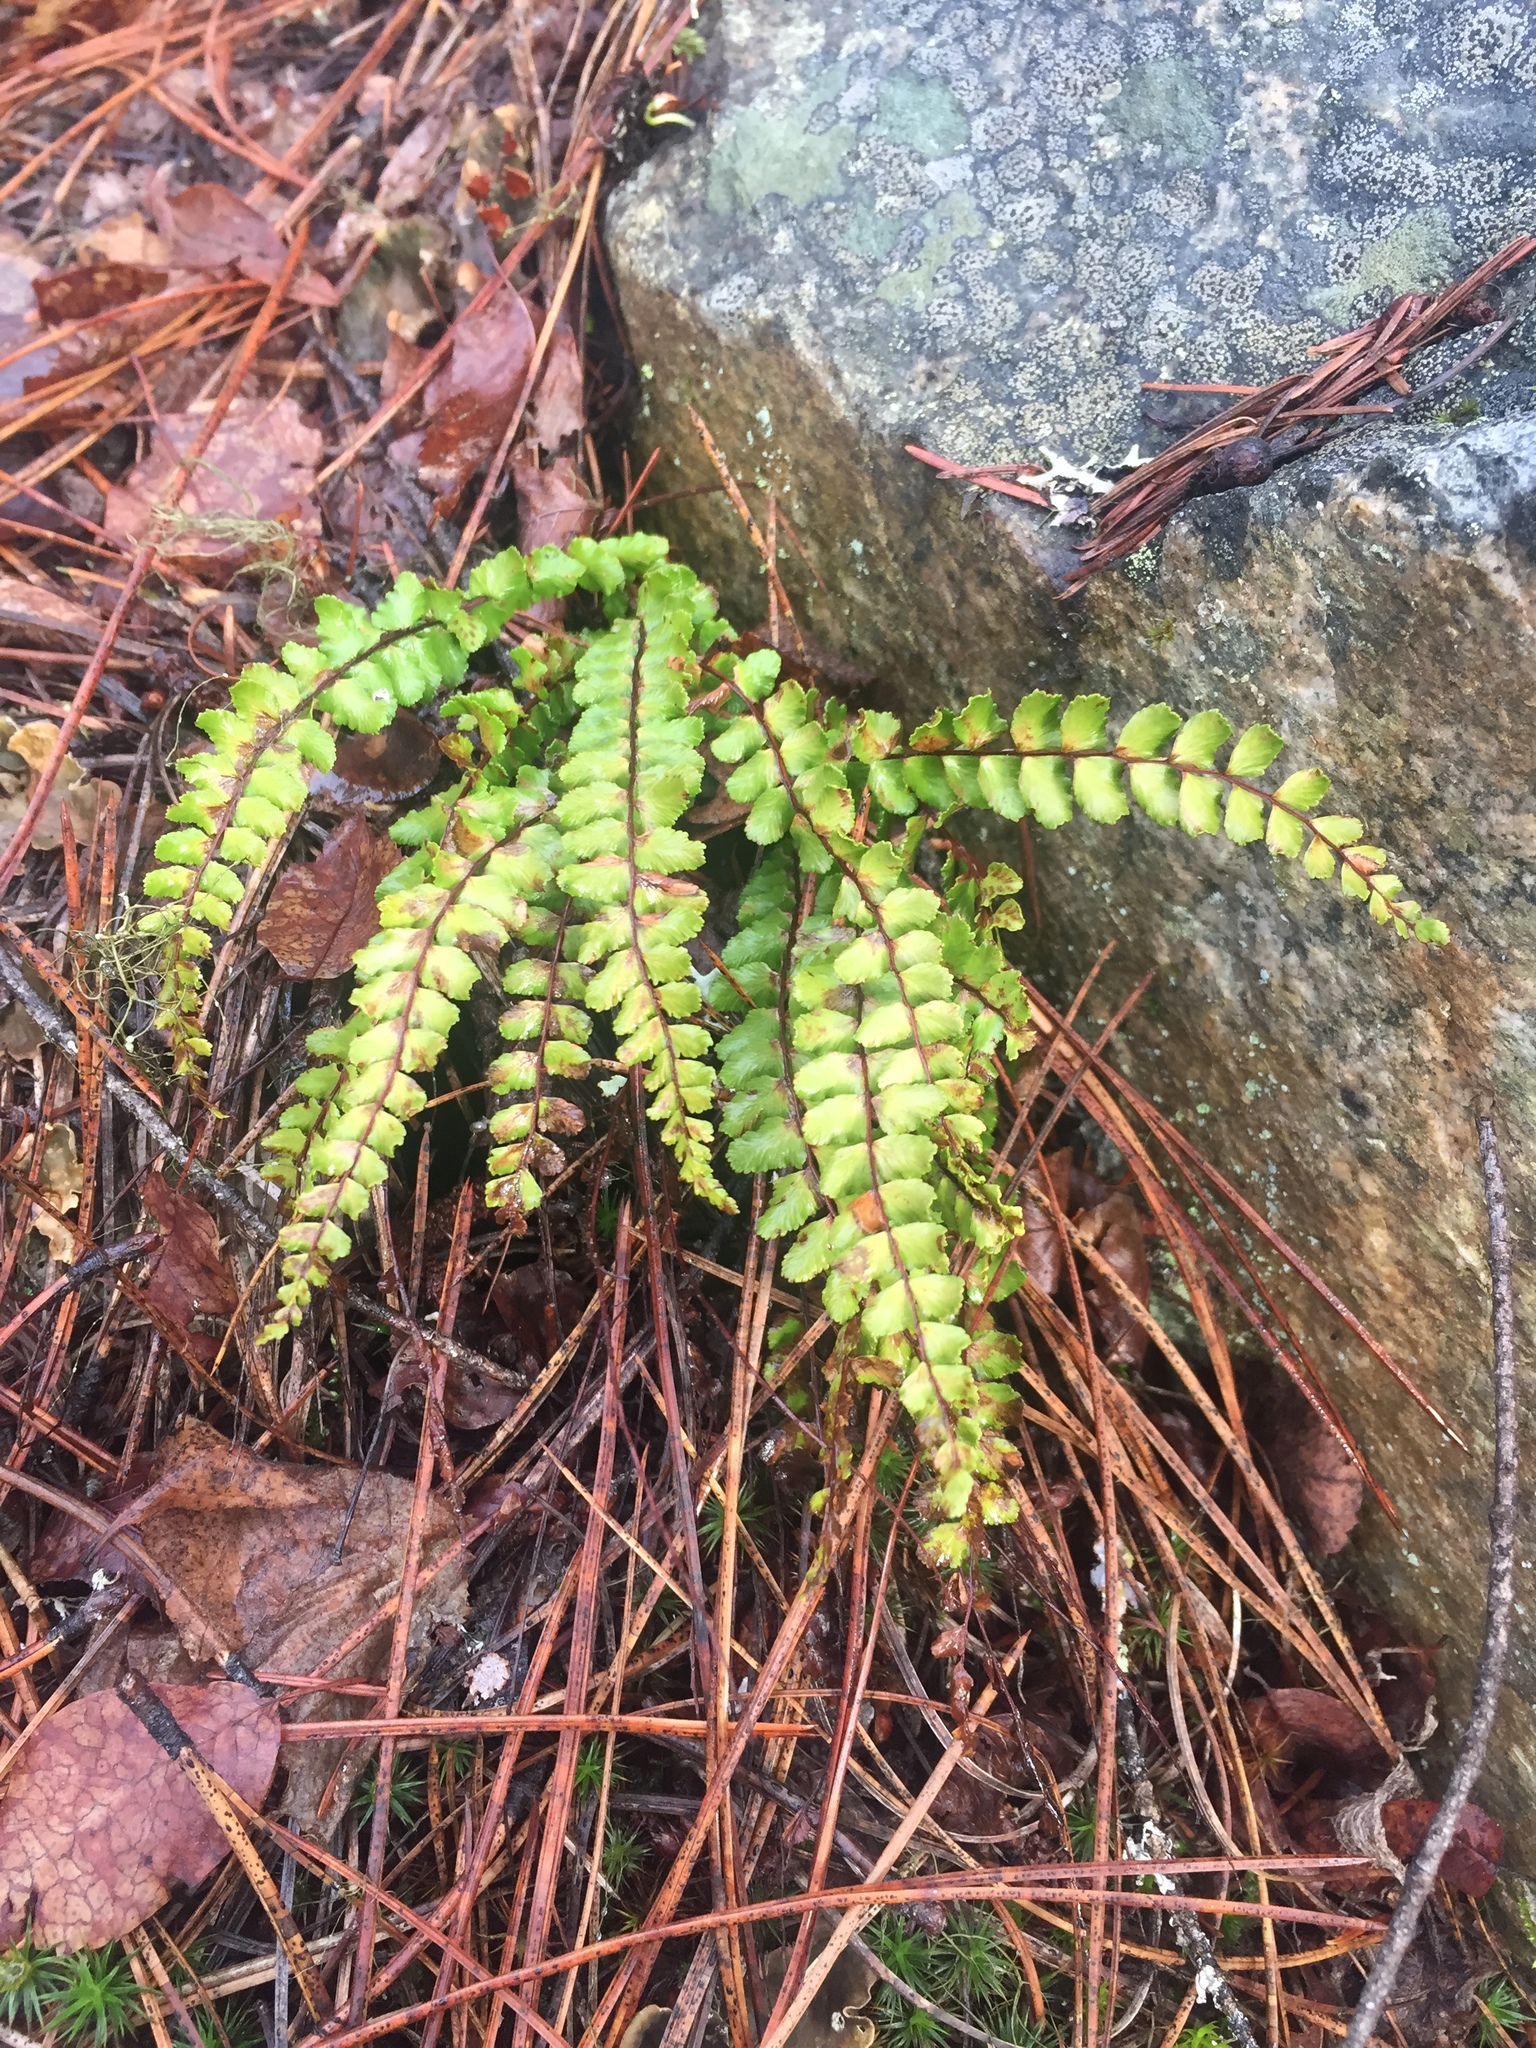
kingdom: Plantae
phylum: Tracheophyta
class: Polypodiopsida
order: Polypodiales
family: Aspleniaceae
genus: Asplenium
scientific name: Asplenium trichomanes
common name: Maidenhair spleenwort
